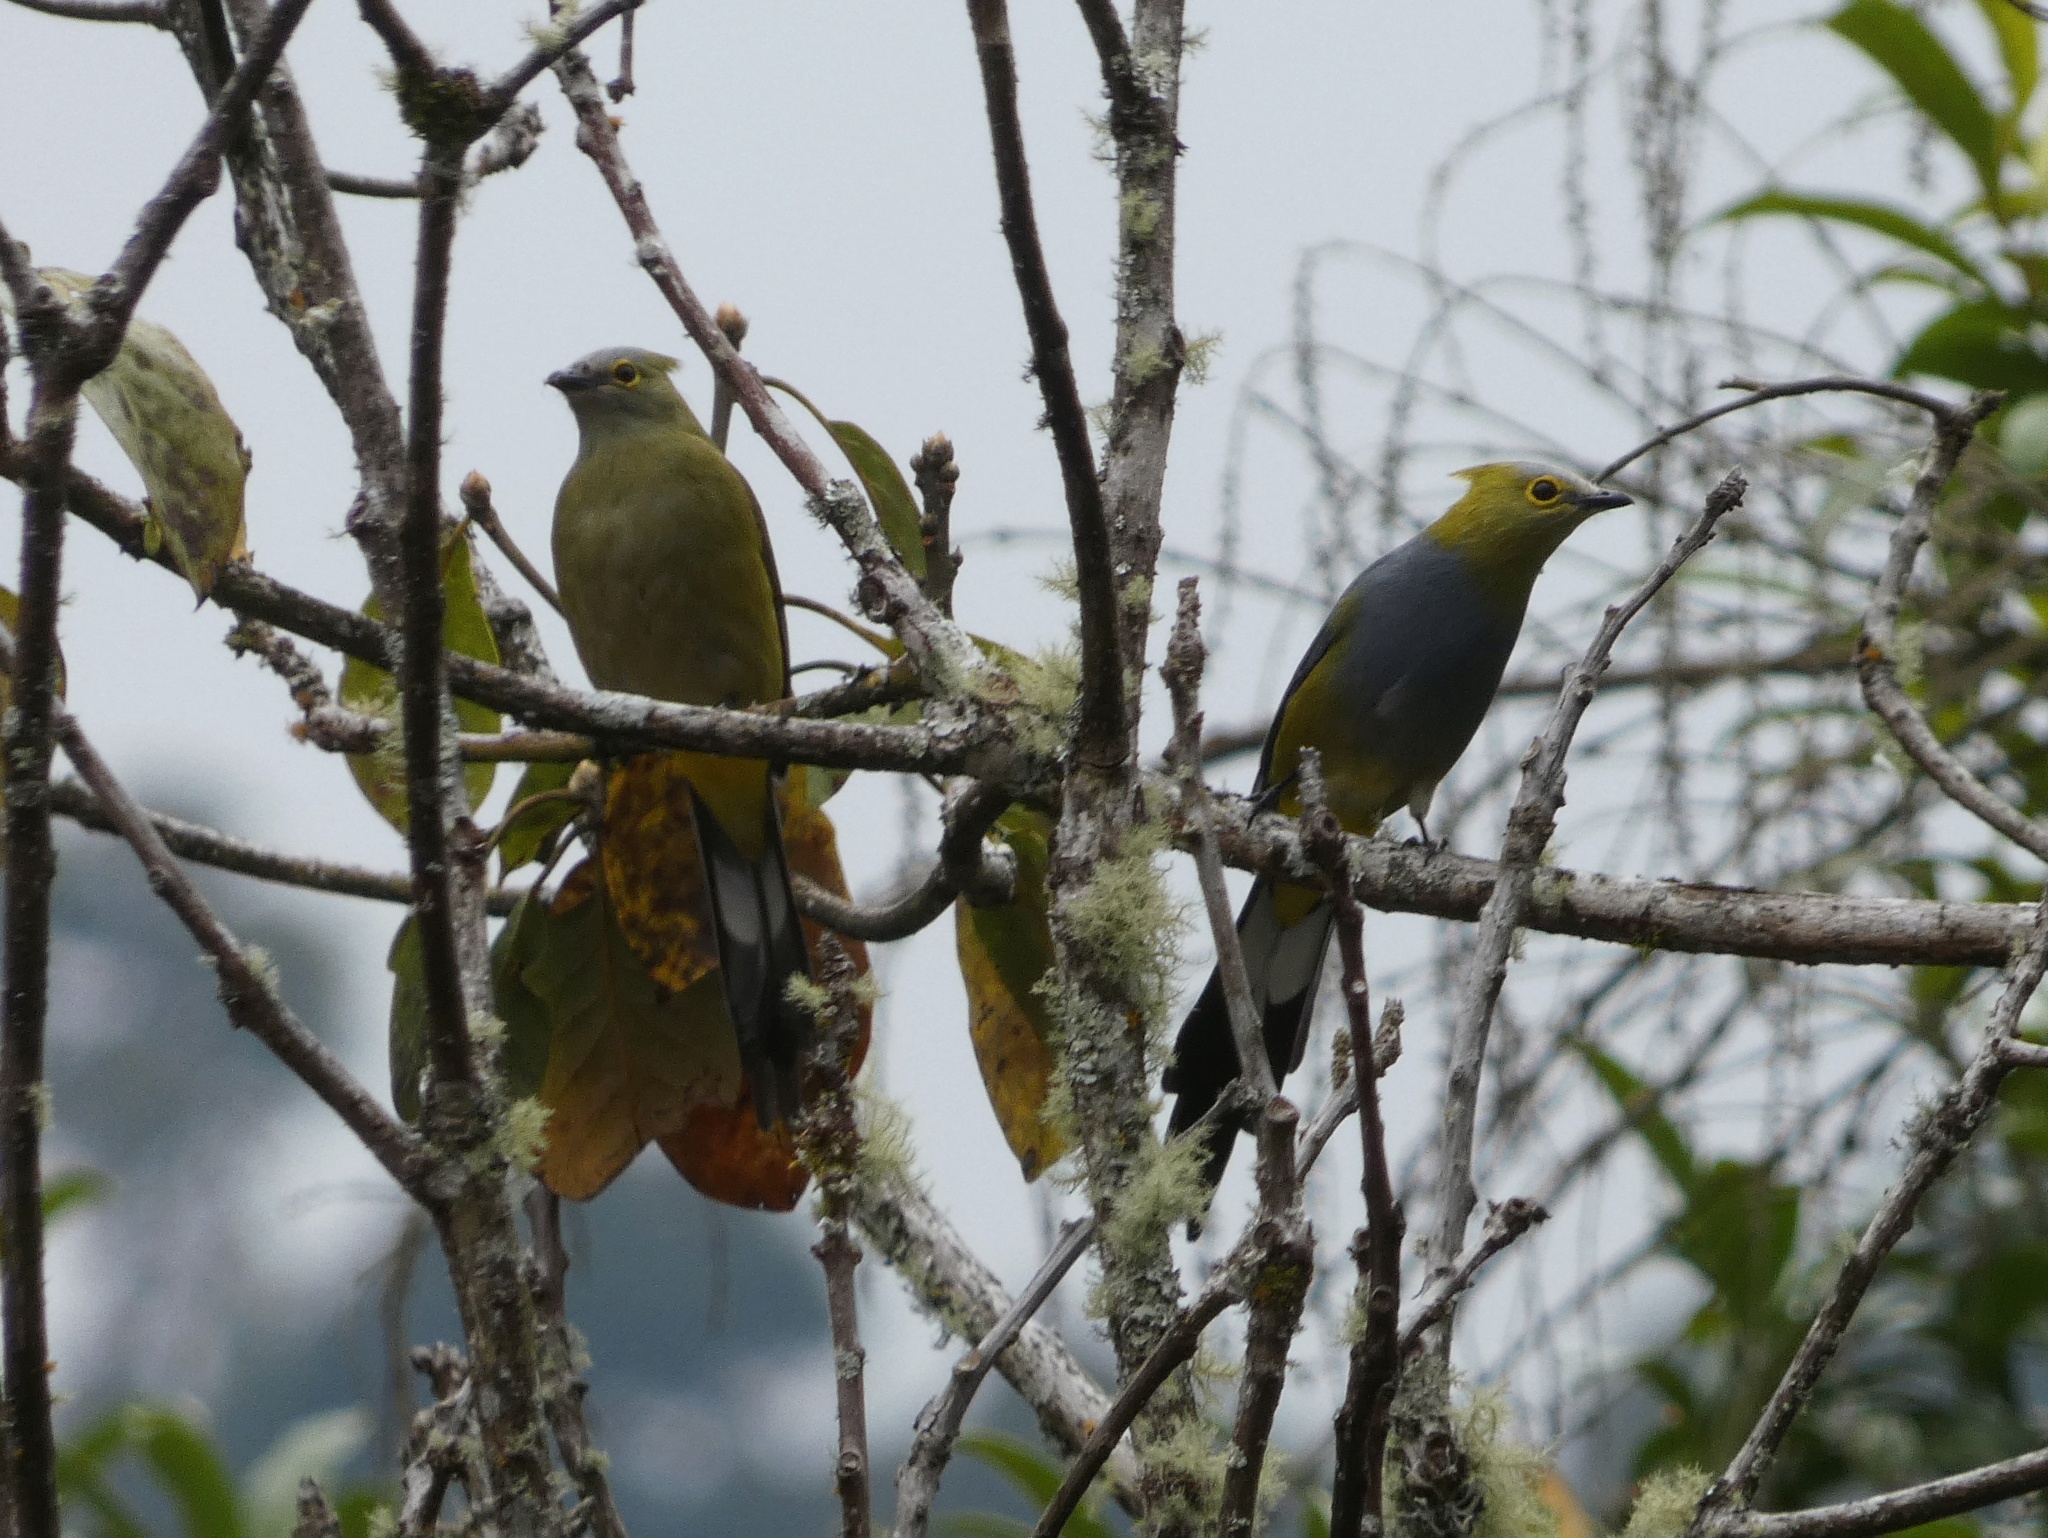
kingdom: Animalia
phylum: Chordata
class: Aves
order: Passeriformes
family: Ptilogonatidae
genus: Ptilogonys
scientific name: Ptilogonys caudatus
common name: Long-tailed silky-flycatcher
